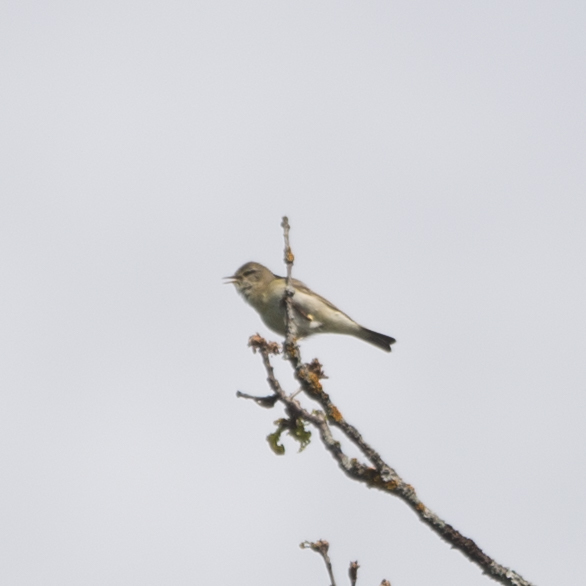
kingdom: Animalia
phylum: Chordata
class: Aves
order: Passeriformes
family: Phylloscopidae
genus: Phylloscopus
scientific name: Phylloscopus collybita
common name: Common chiffchaff
